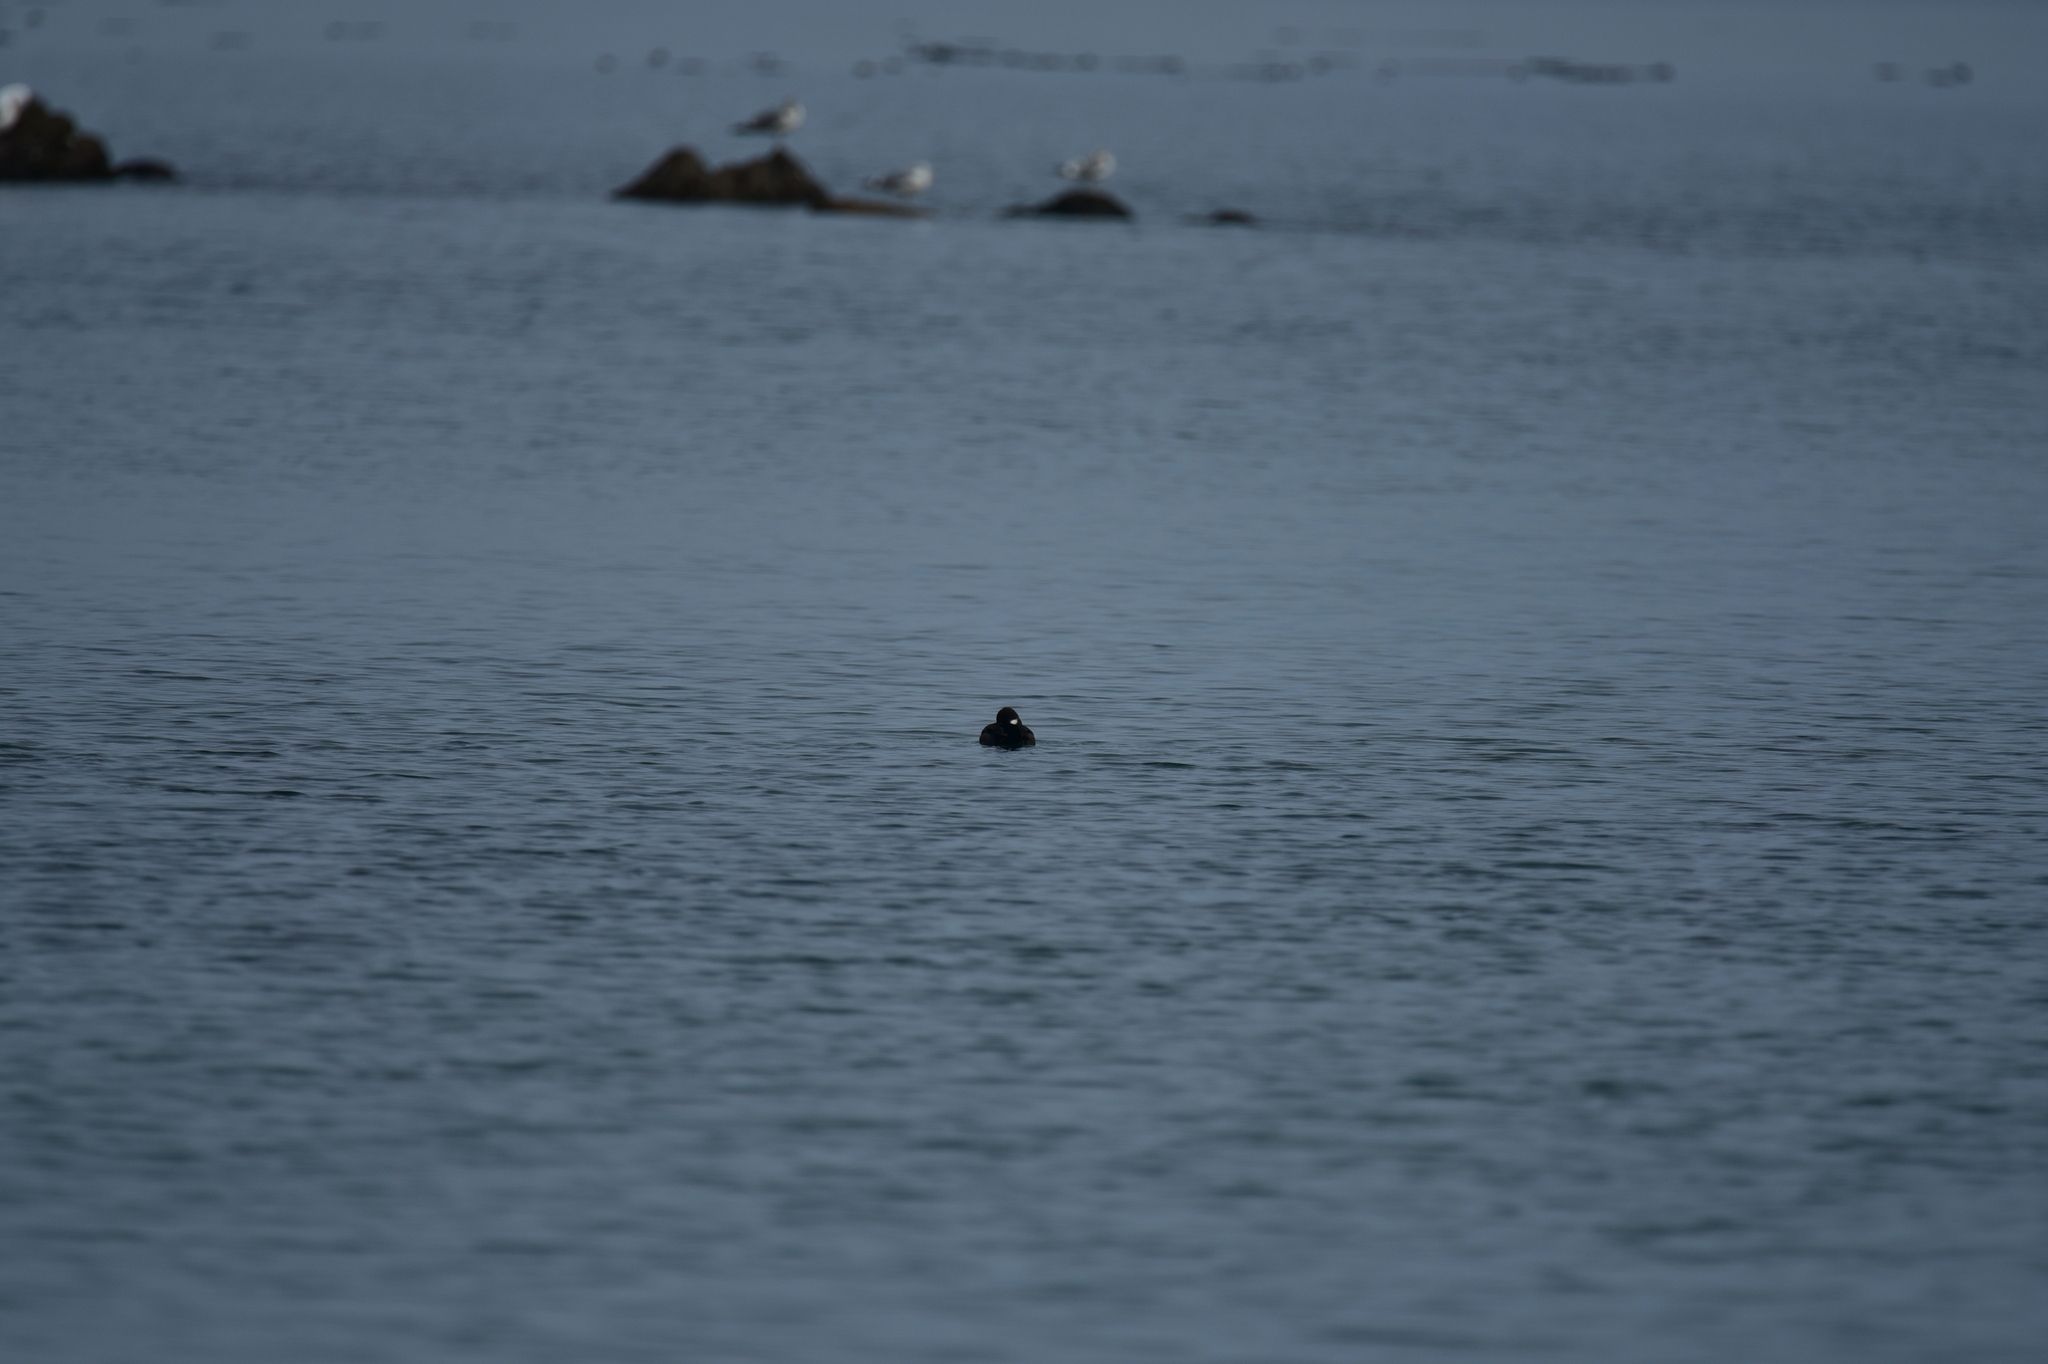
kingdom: Animalia
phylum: Chordata
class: Aves
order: Anseriformes
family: Anatidae
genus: Bucephala
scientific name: Bucephala albeola
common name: Bufflehead
